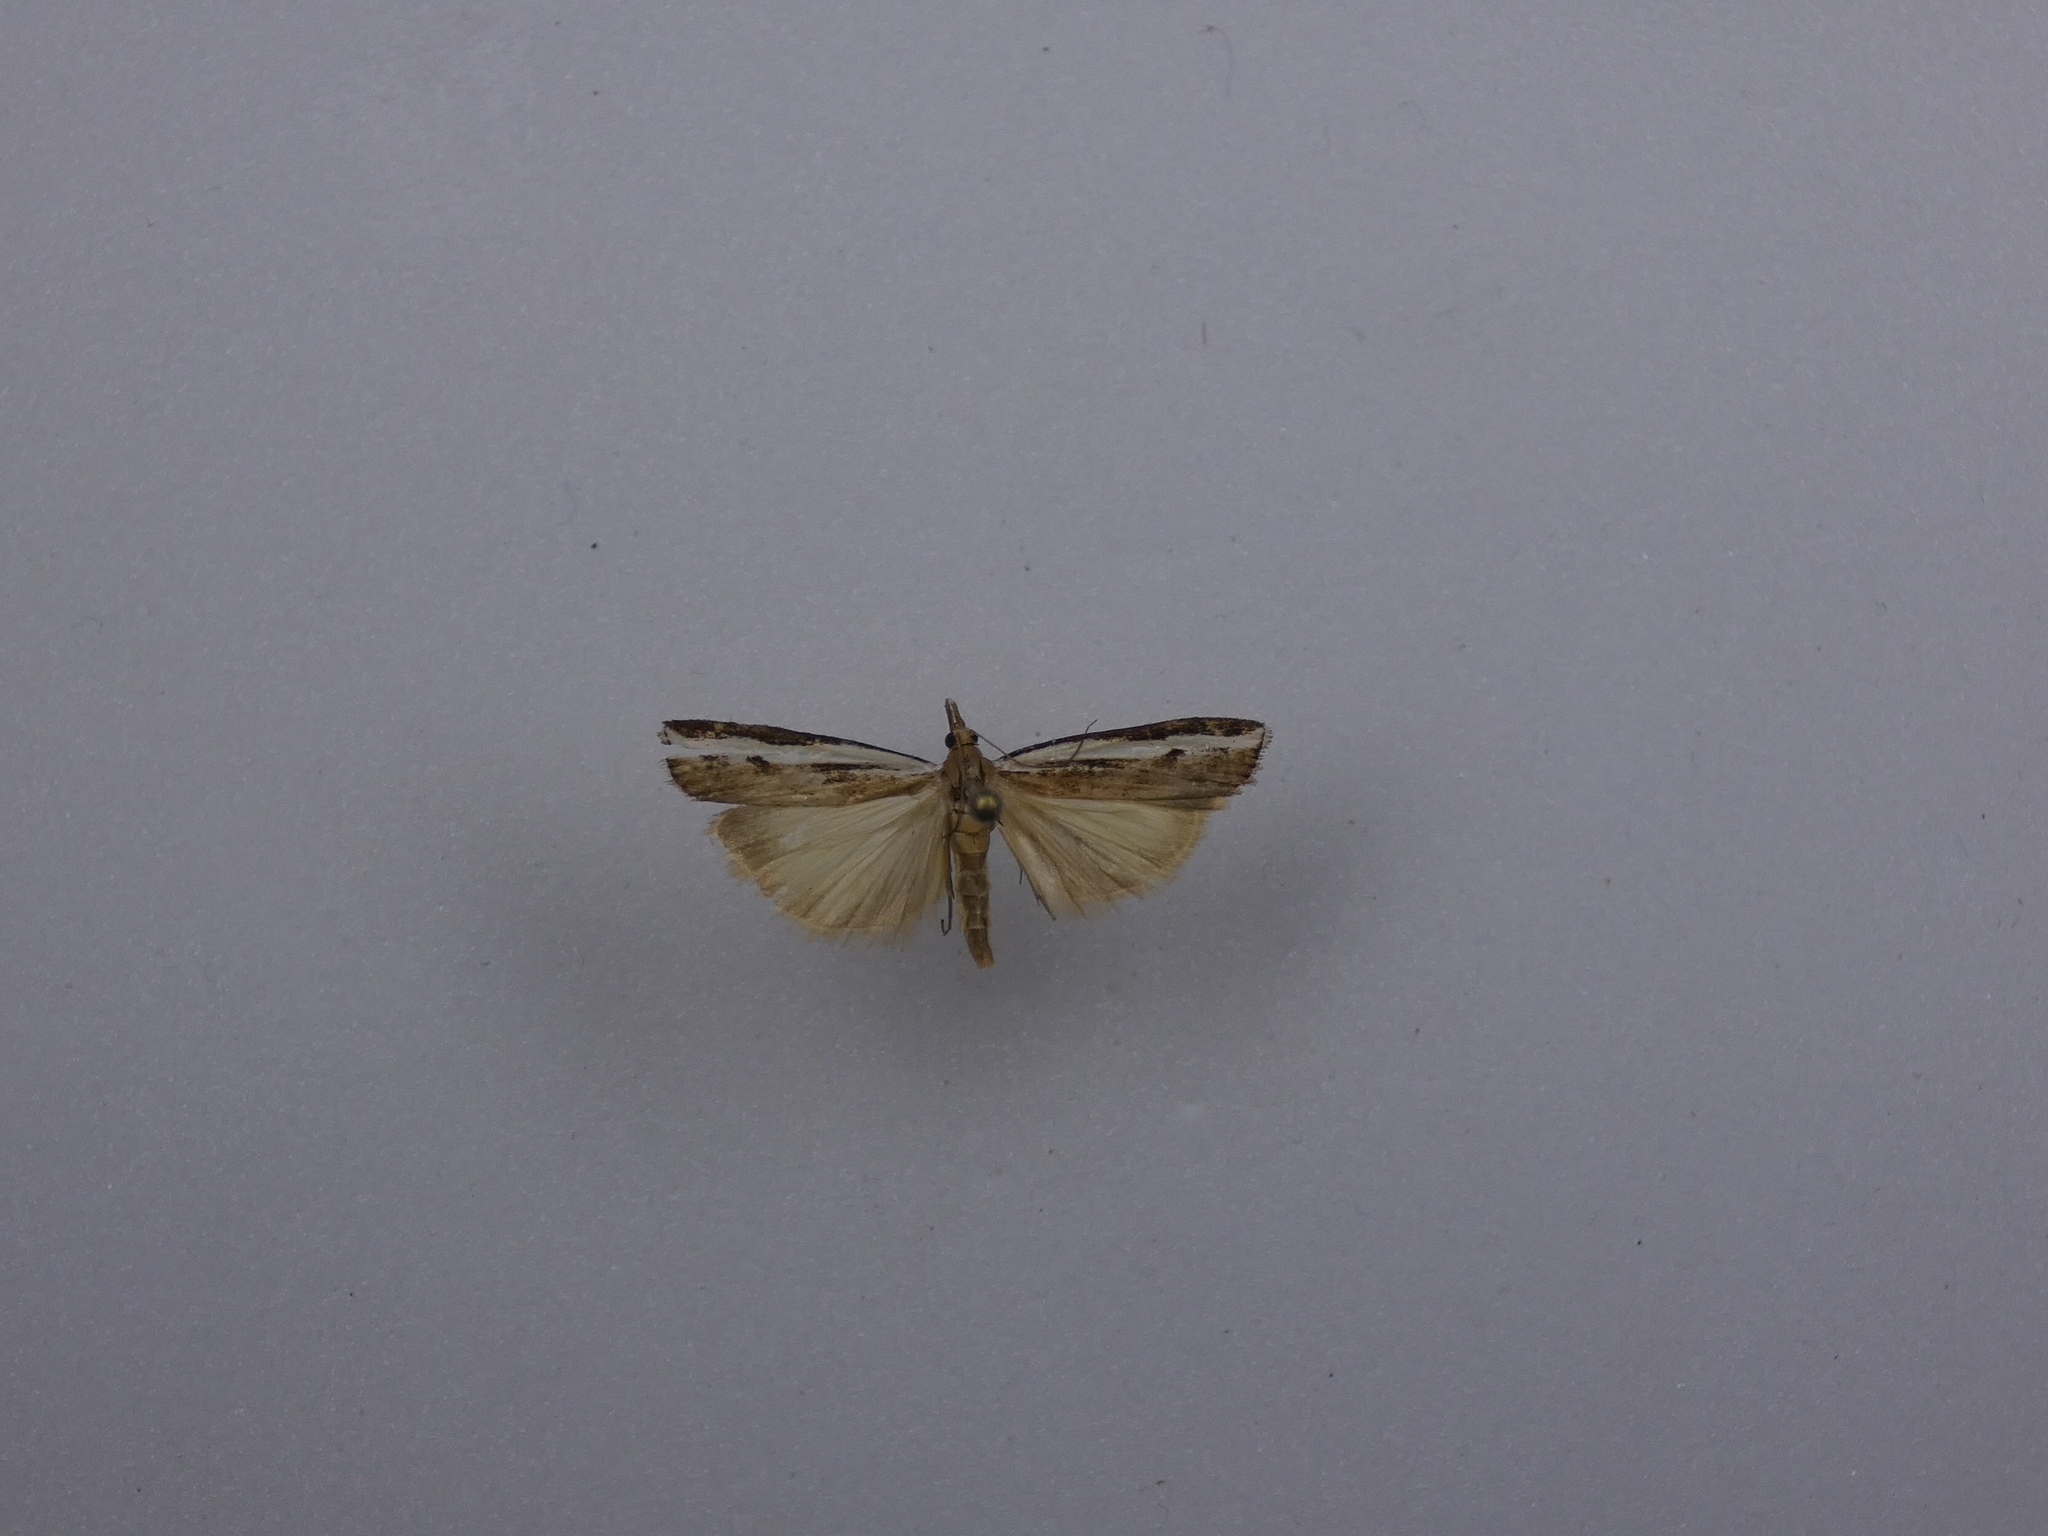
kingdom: Animalia
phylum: Arthropoda
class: Insecta
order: Lepidoptera
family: Crambidae
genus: Orocrambus
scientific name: Orocrambus flexuosellus
